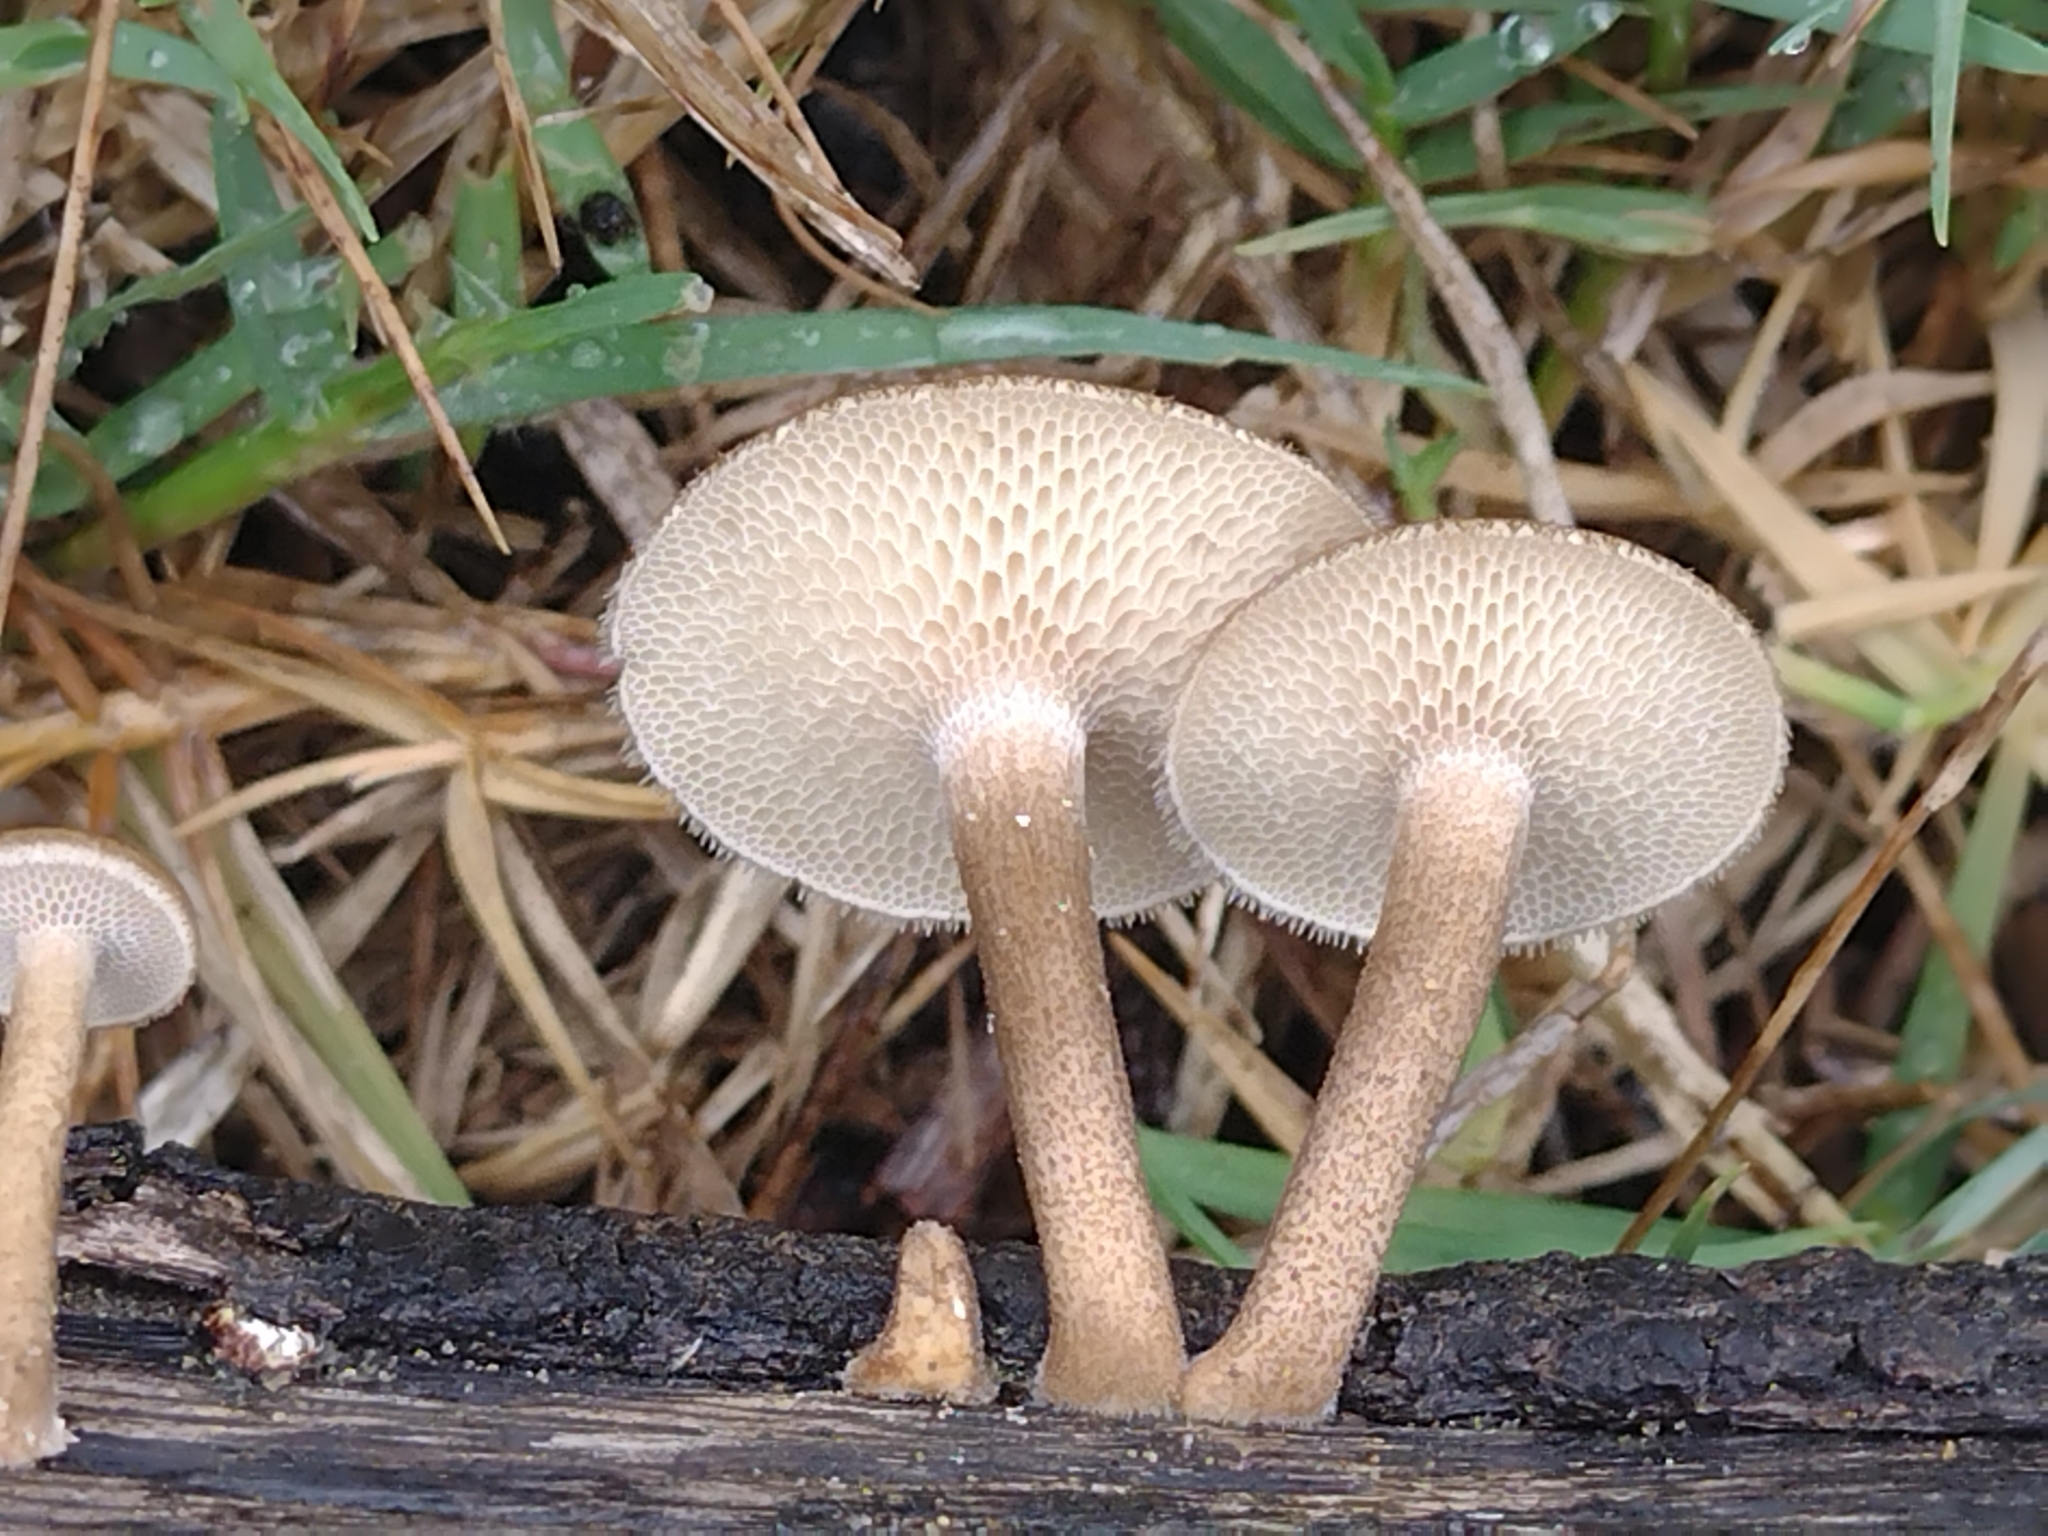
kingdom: Fungi
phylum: Basidiomycota
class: Agaricomycetes
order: Polyporales
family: Polyporaceae
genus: Lentinus
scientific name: Lentinus arcularius
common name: Spring polypore
